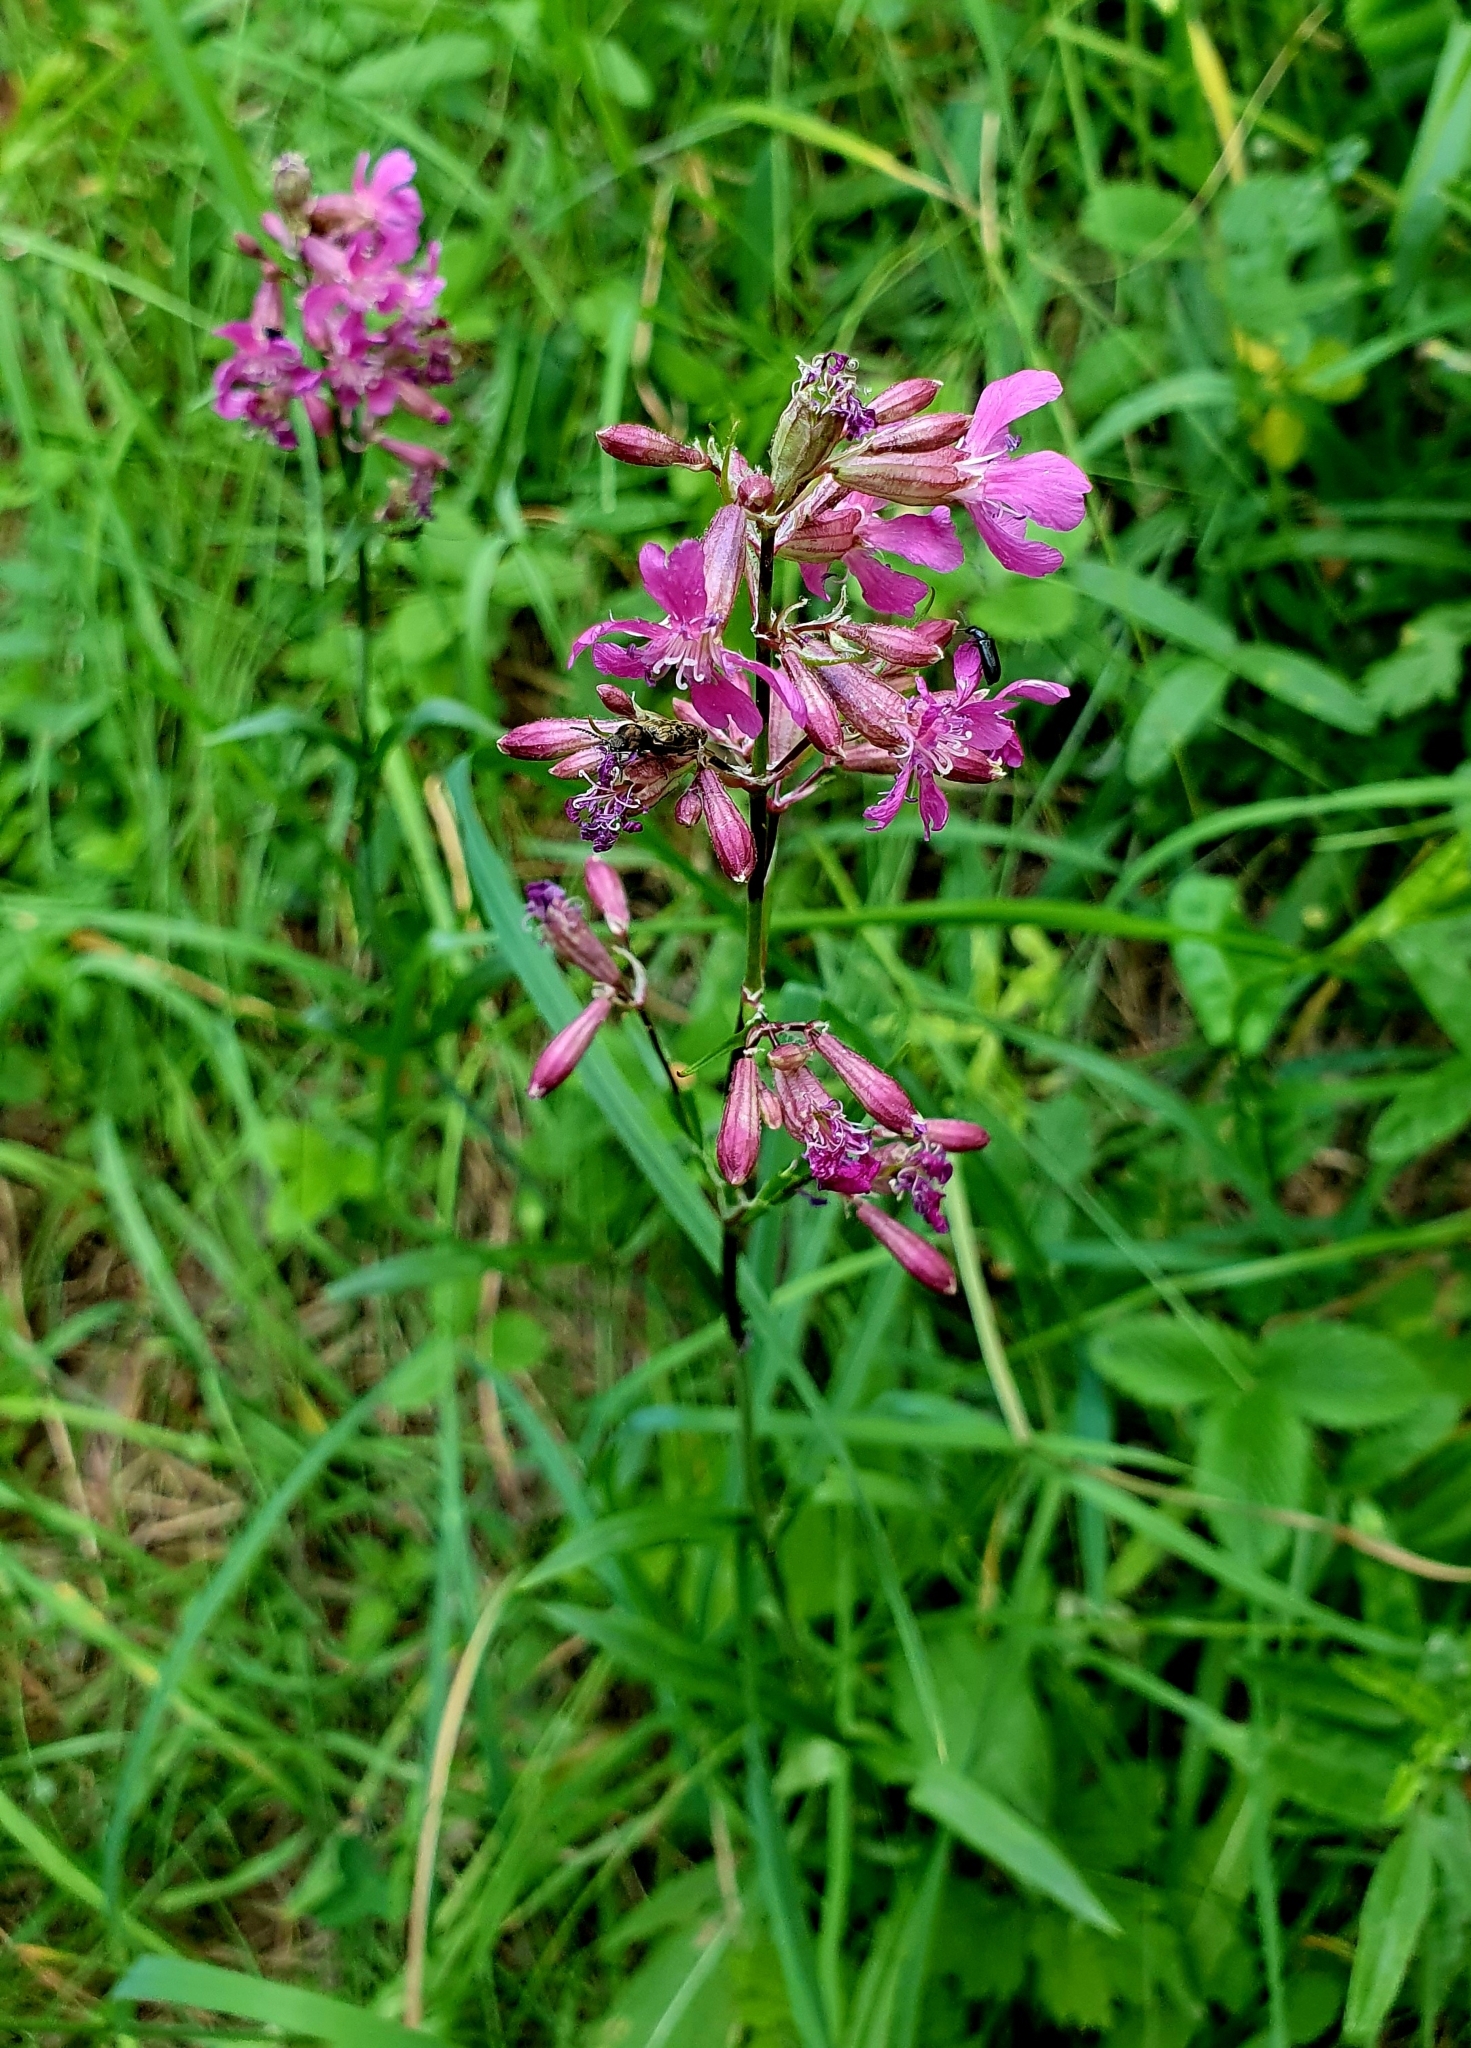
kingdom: Plantae
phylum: Tracheophyta
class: Magnoliopsida
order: Caryophyllales
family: Caryophyllaceae
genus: Viscaria
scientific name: Viscaria vulgaris
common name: Clammy campion
